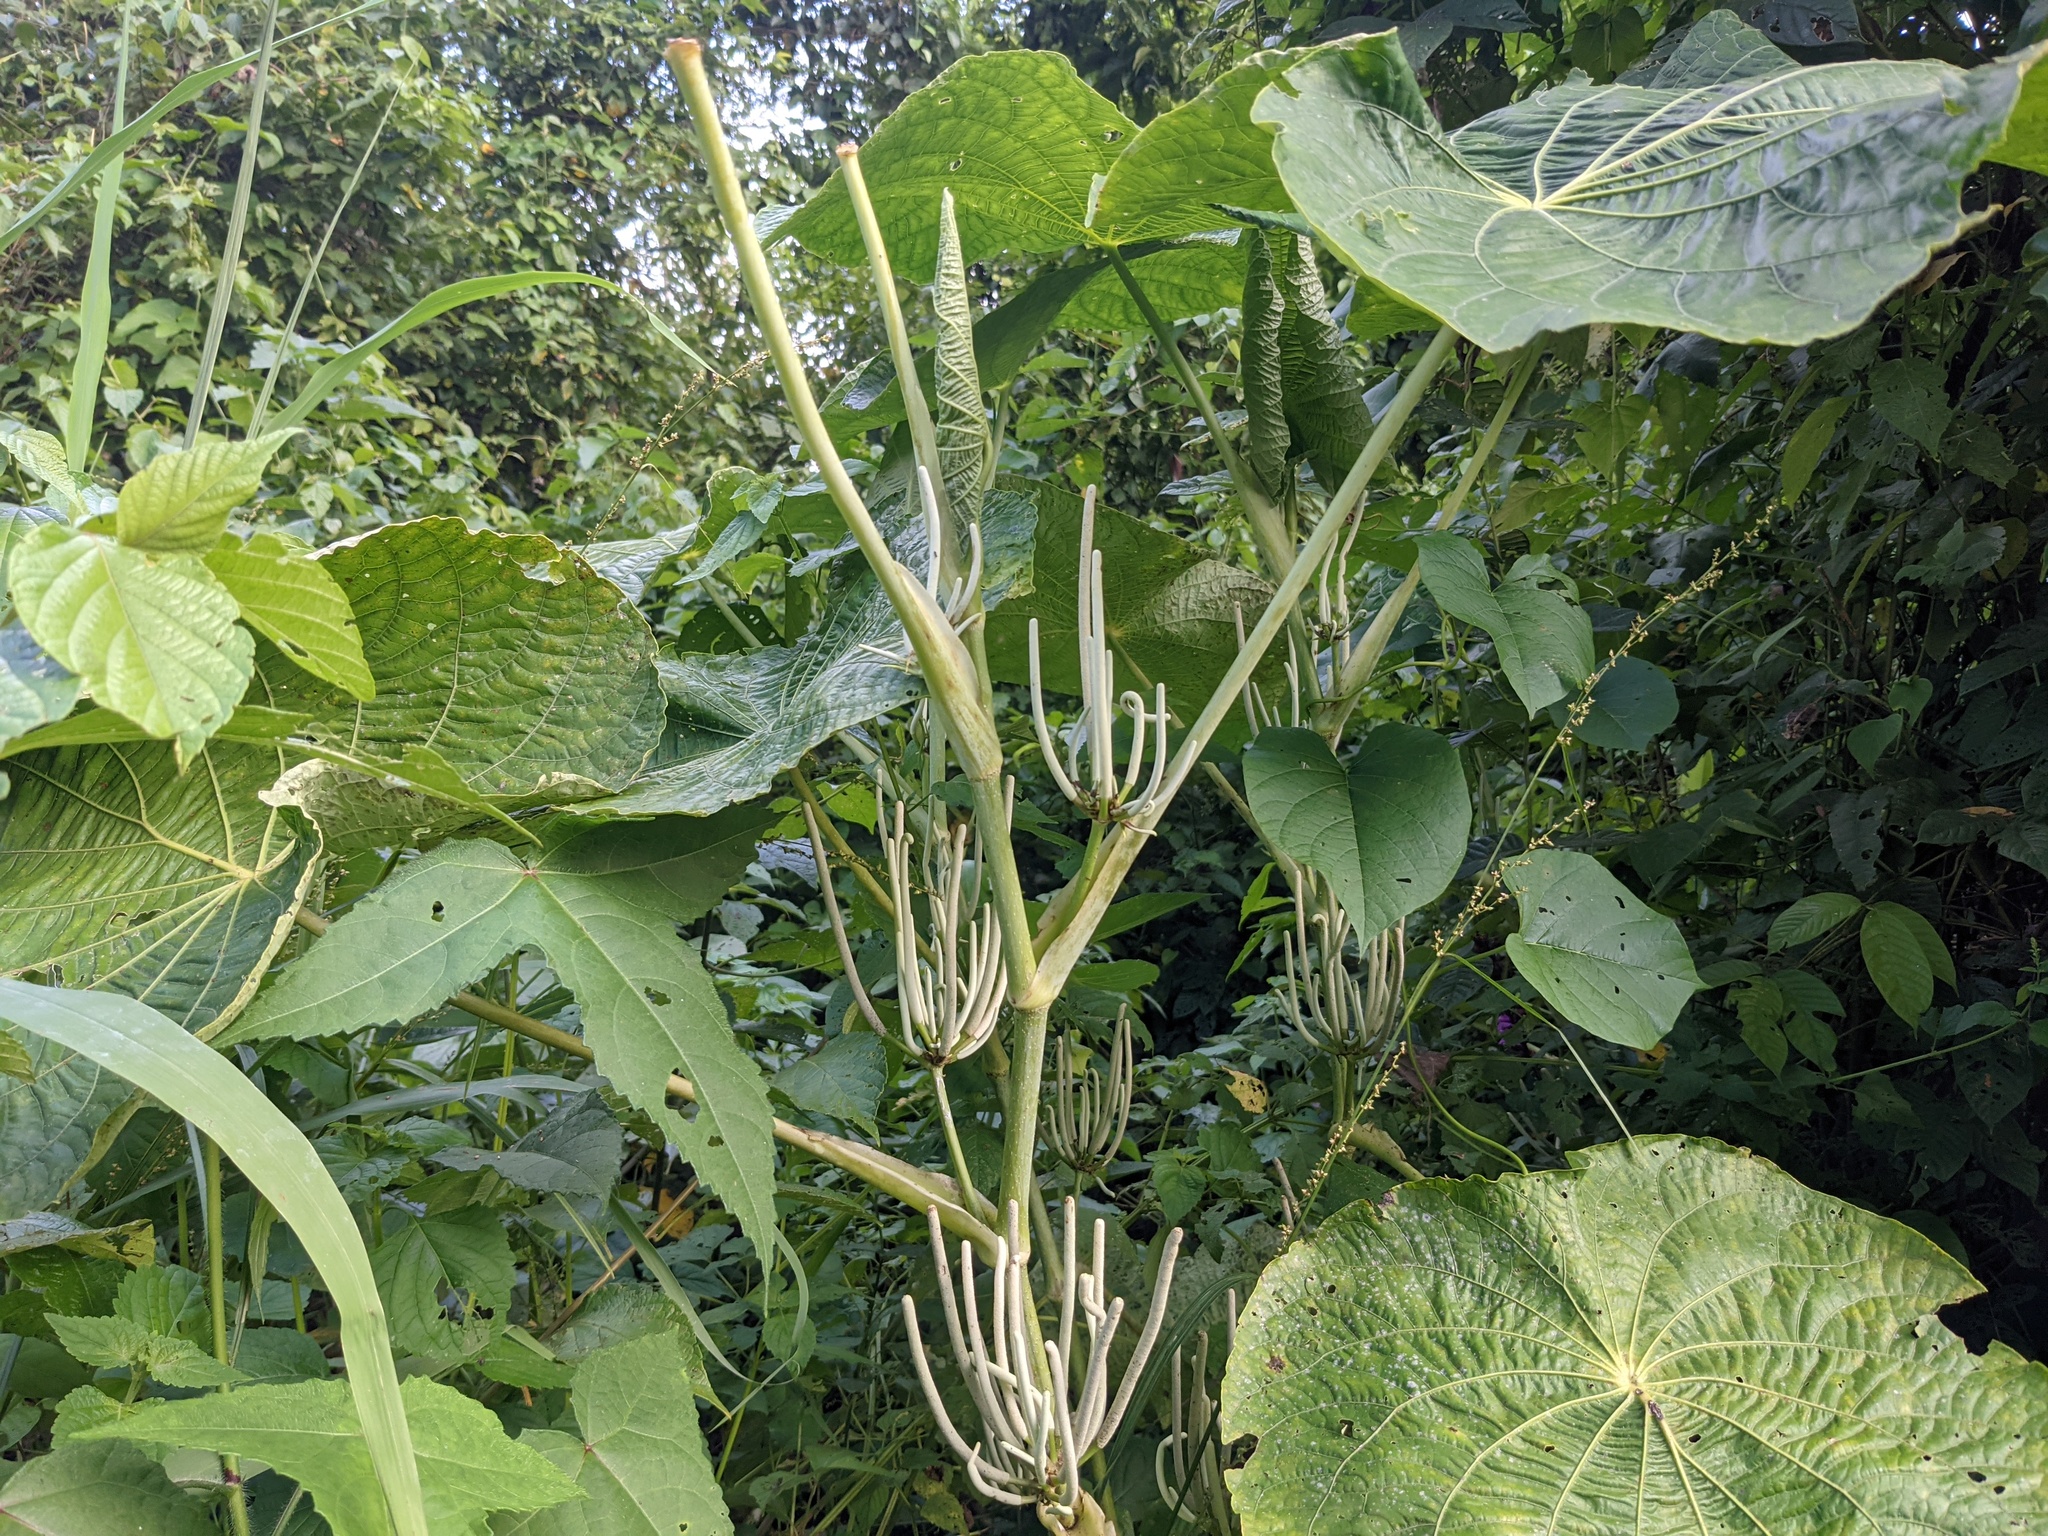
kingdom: Plantae
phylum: Tracheophyta
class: Magnoliopsida
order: Piperales
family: Piperaceae
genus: Piper
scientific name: Piper peltatum
